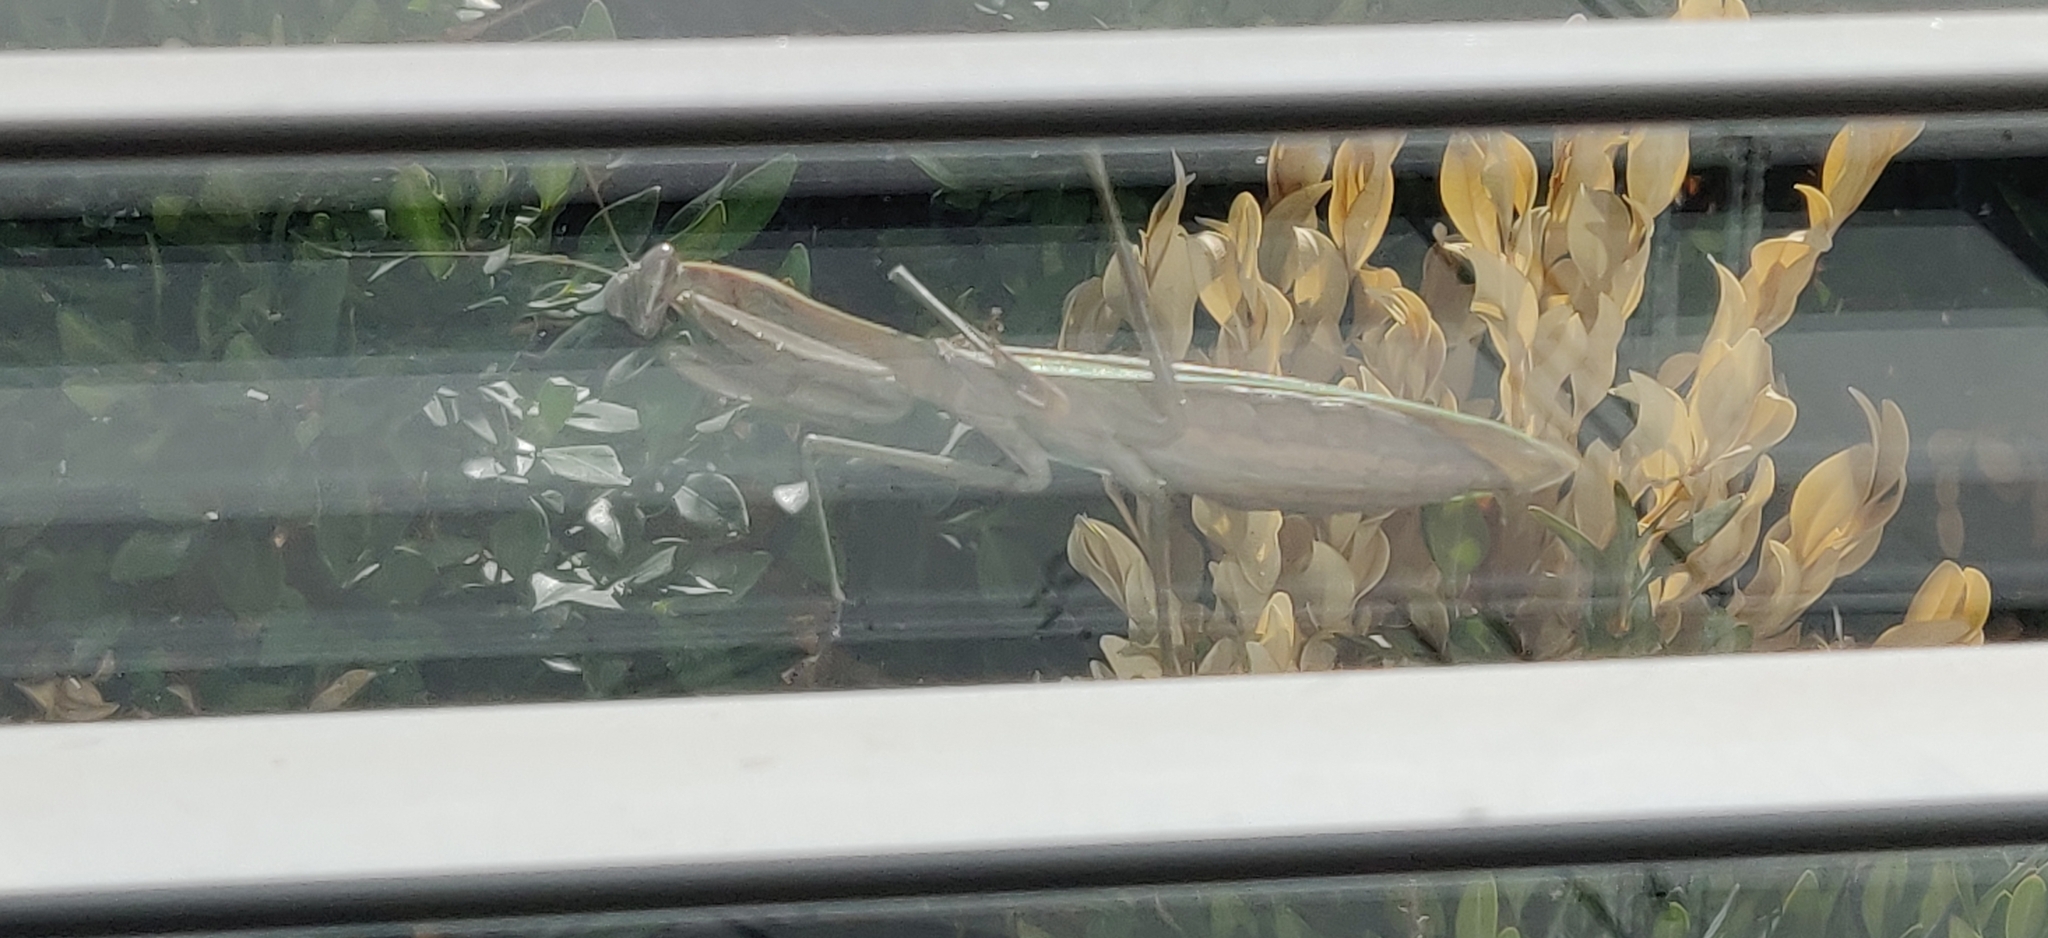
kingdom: Animalia
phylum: Arthropoda
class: Insecta
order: Mantodea
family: Mantidae
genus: Tenodera
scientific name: Tenodera sinensis
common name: Chinese mantis
